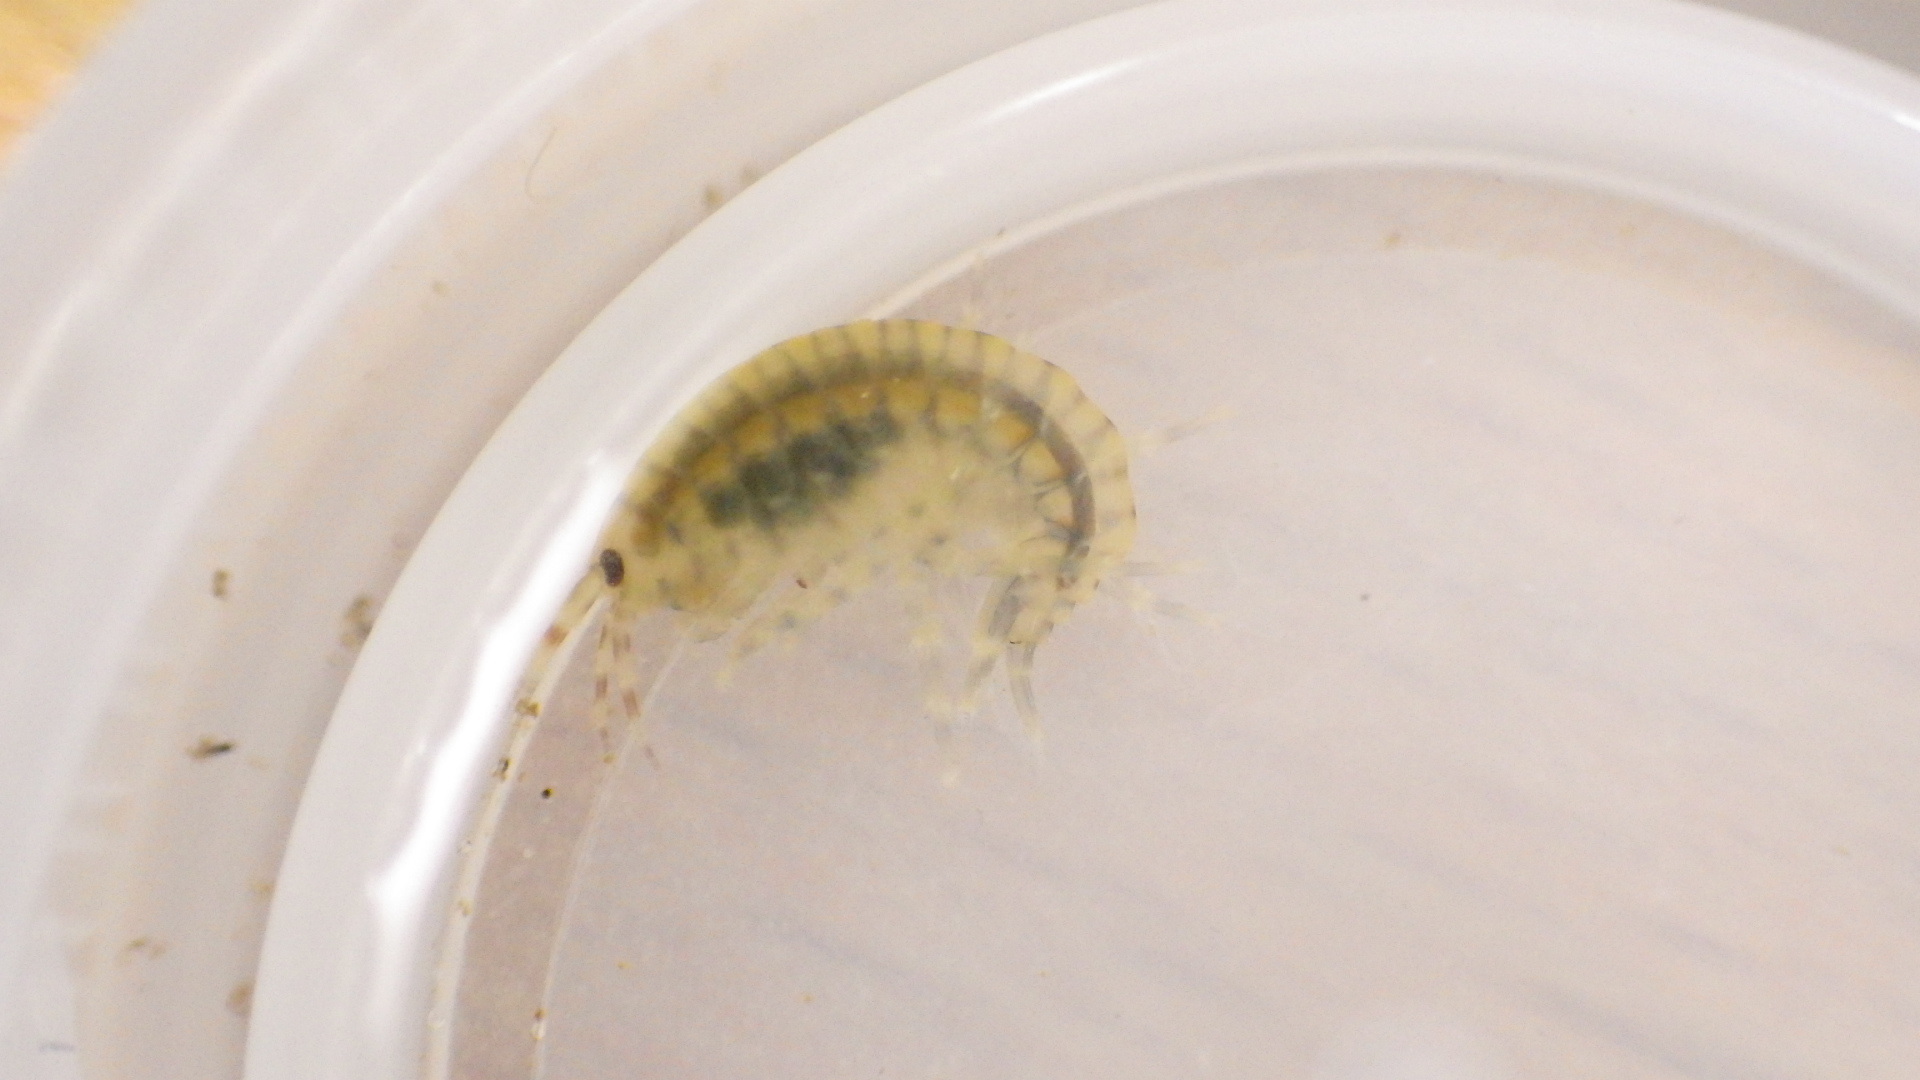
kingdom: Animalia
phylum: Arthropoda
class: Malacostraca
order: Amphipoda
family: Gammaridae
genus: Gammarus
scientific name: Gammarus fasciatus
